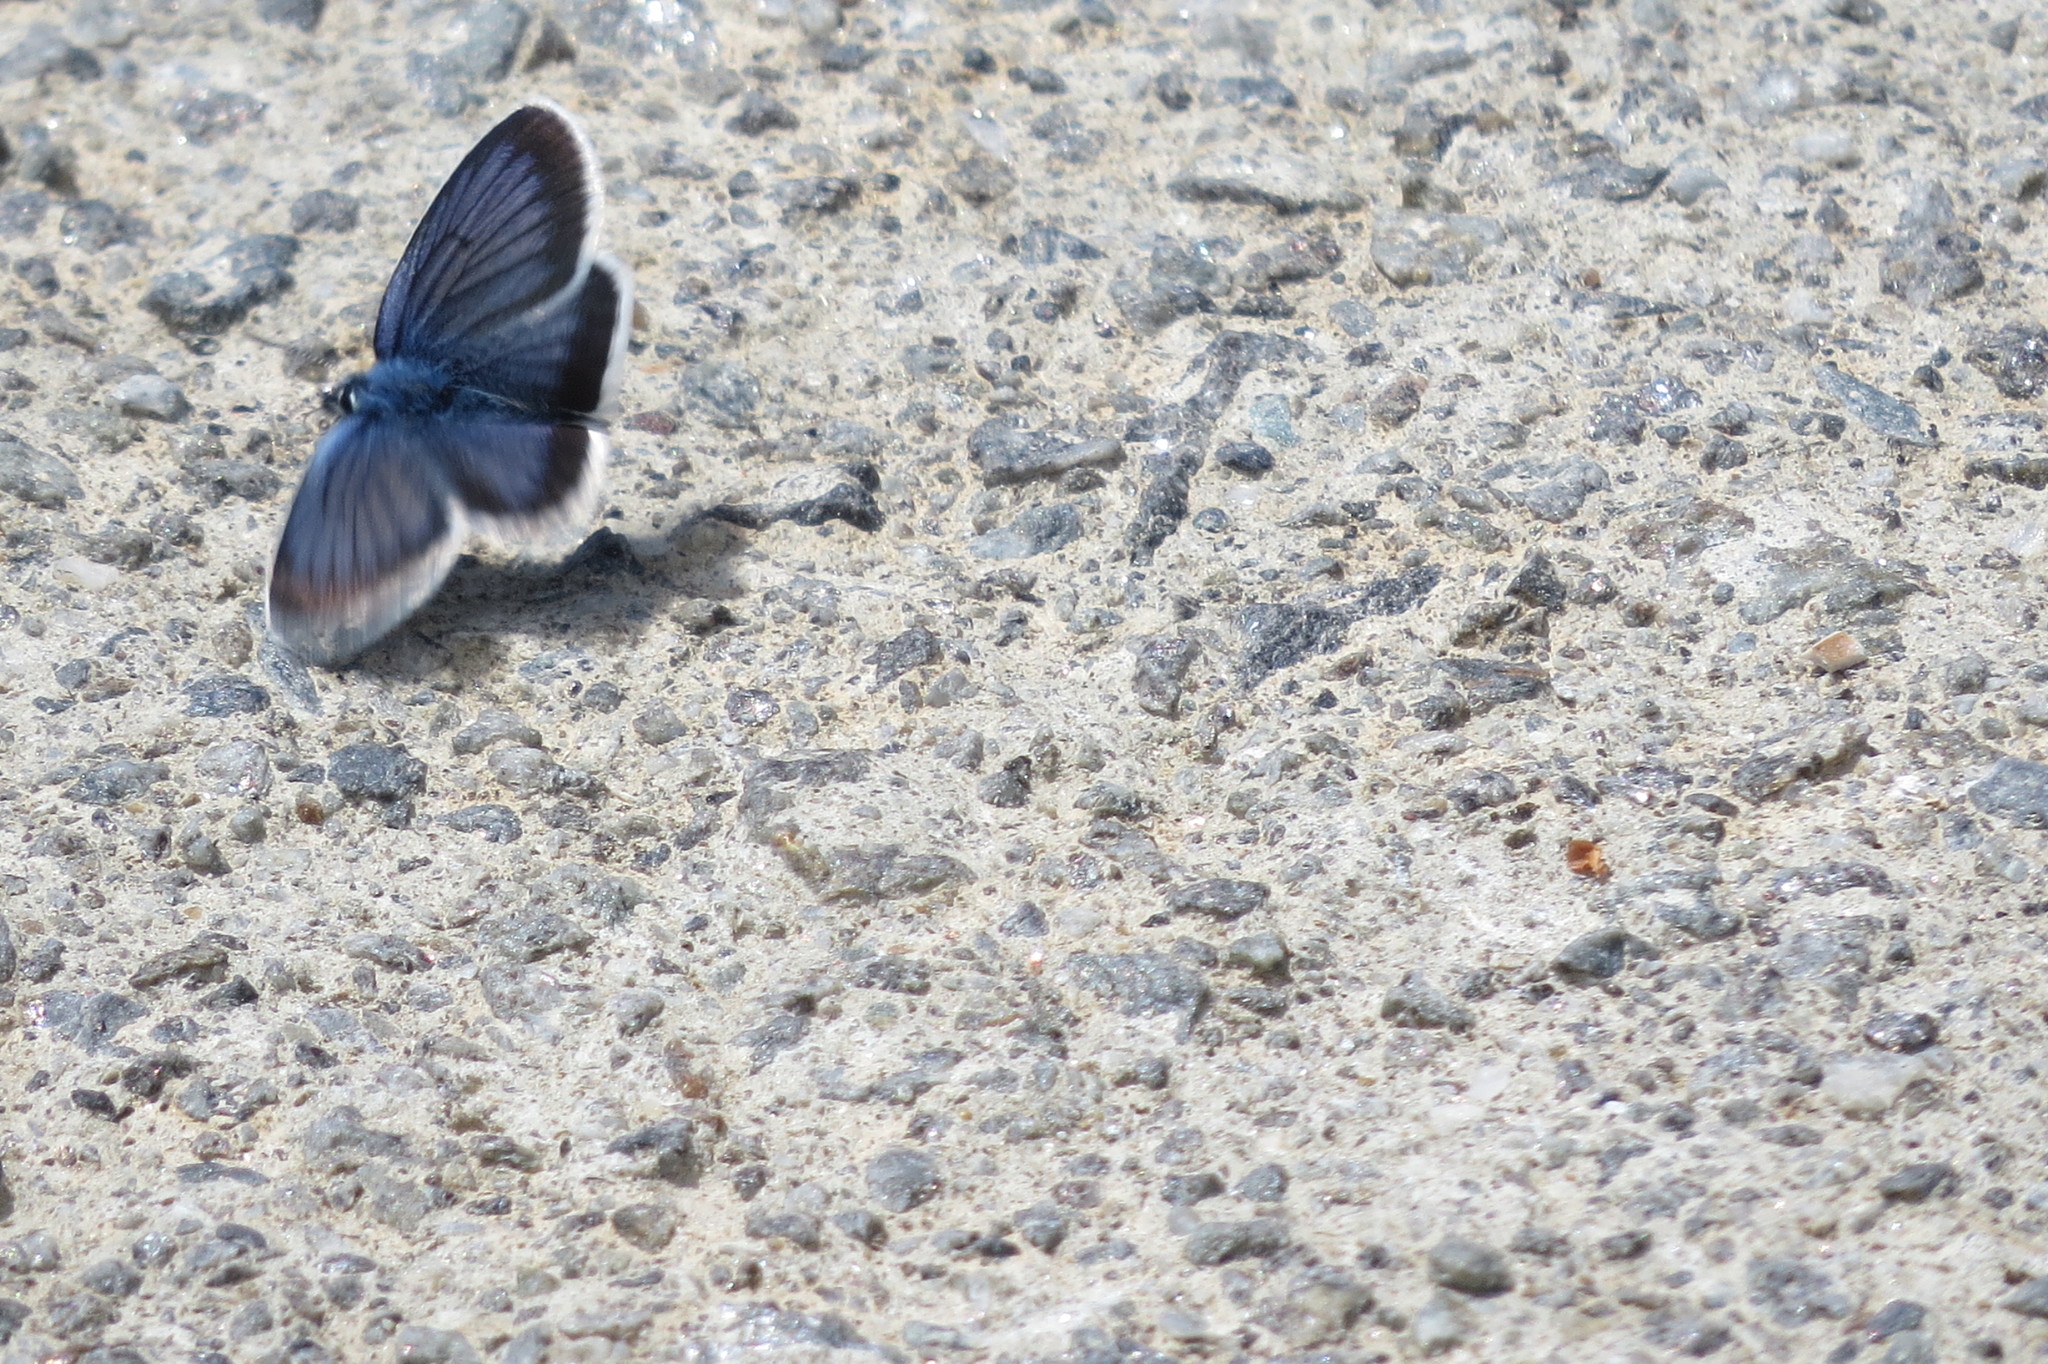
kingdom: Animalia
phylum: Arthropoda
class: Insecta
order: Lepidoptera
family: Lycaenidae
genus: Plebejus
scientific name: Plebejus argus
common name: Silver-studded blue
